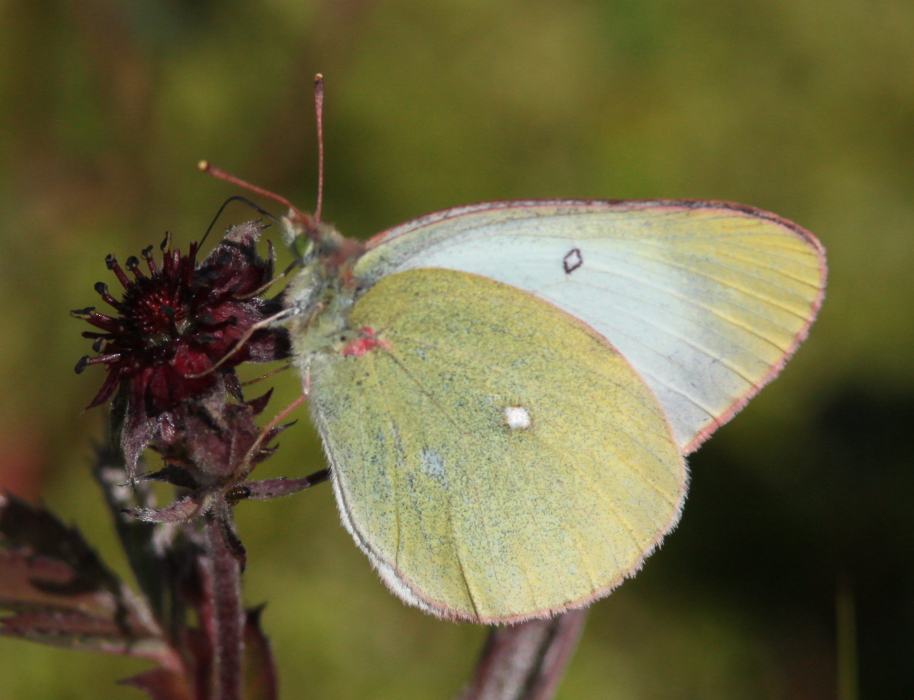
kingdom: Animalia
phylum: Arthropoda
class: Insecta
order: Lepidoptera
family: Pieridae
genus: Colias
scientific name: Colias palaeno
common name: Moorland clouded yellow
